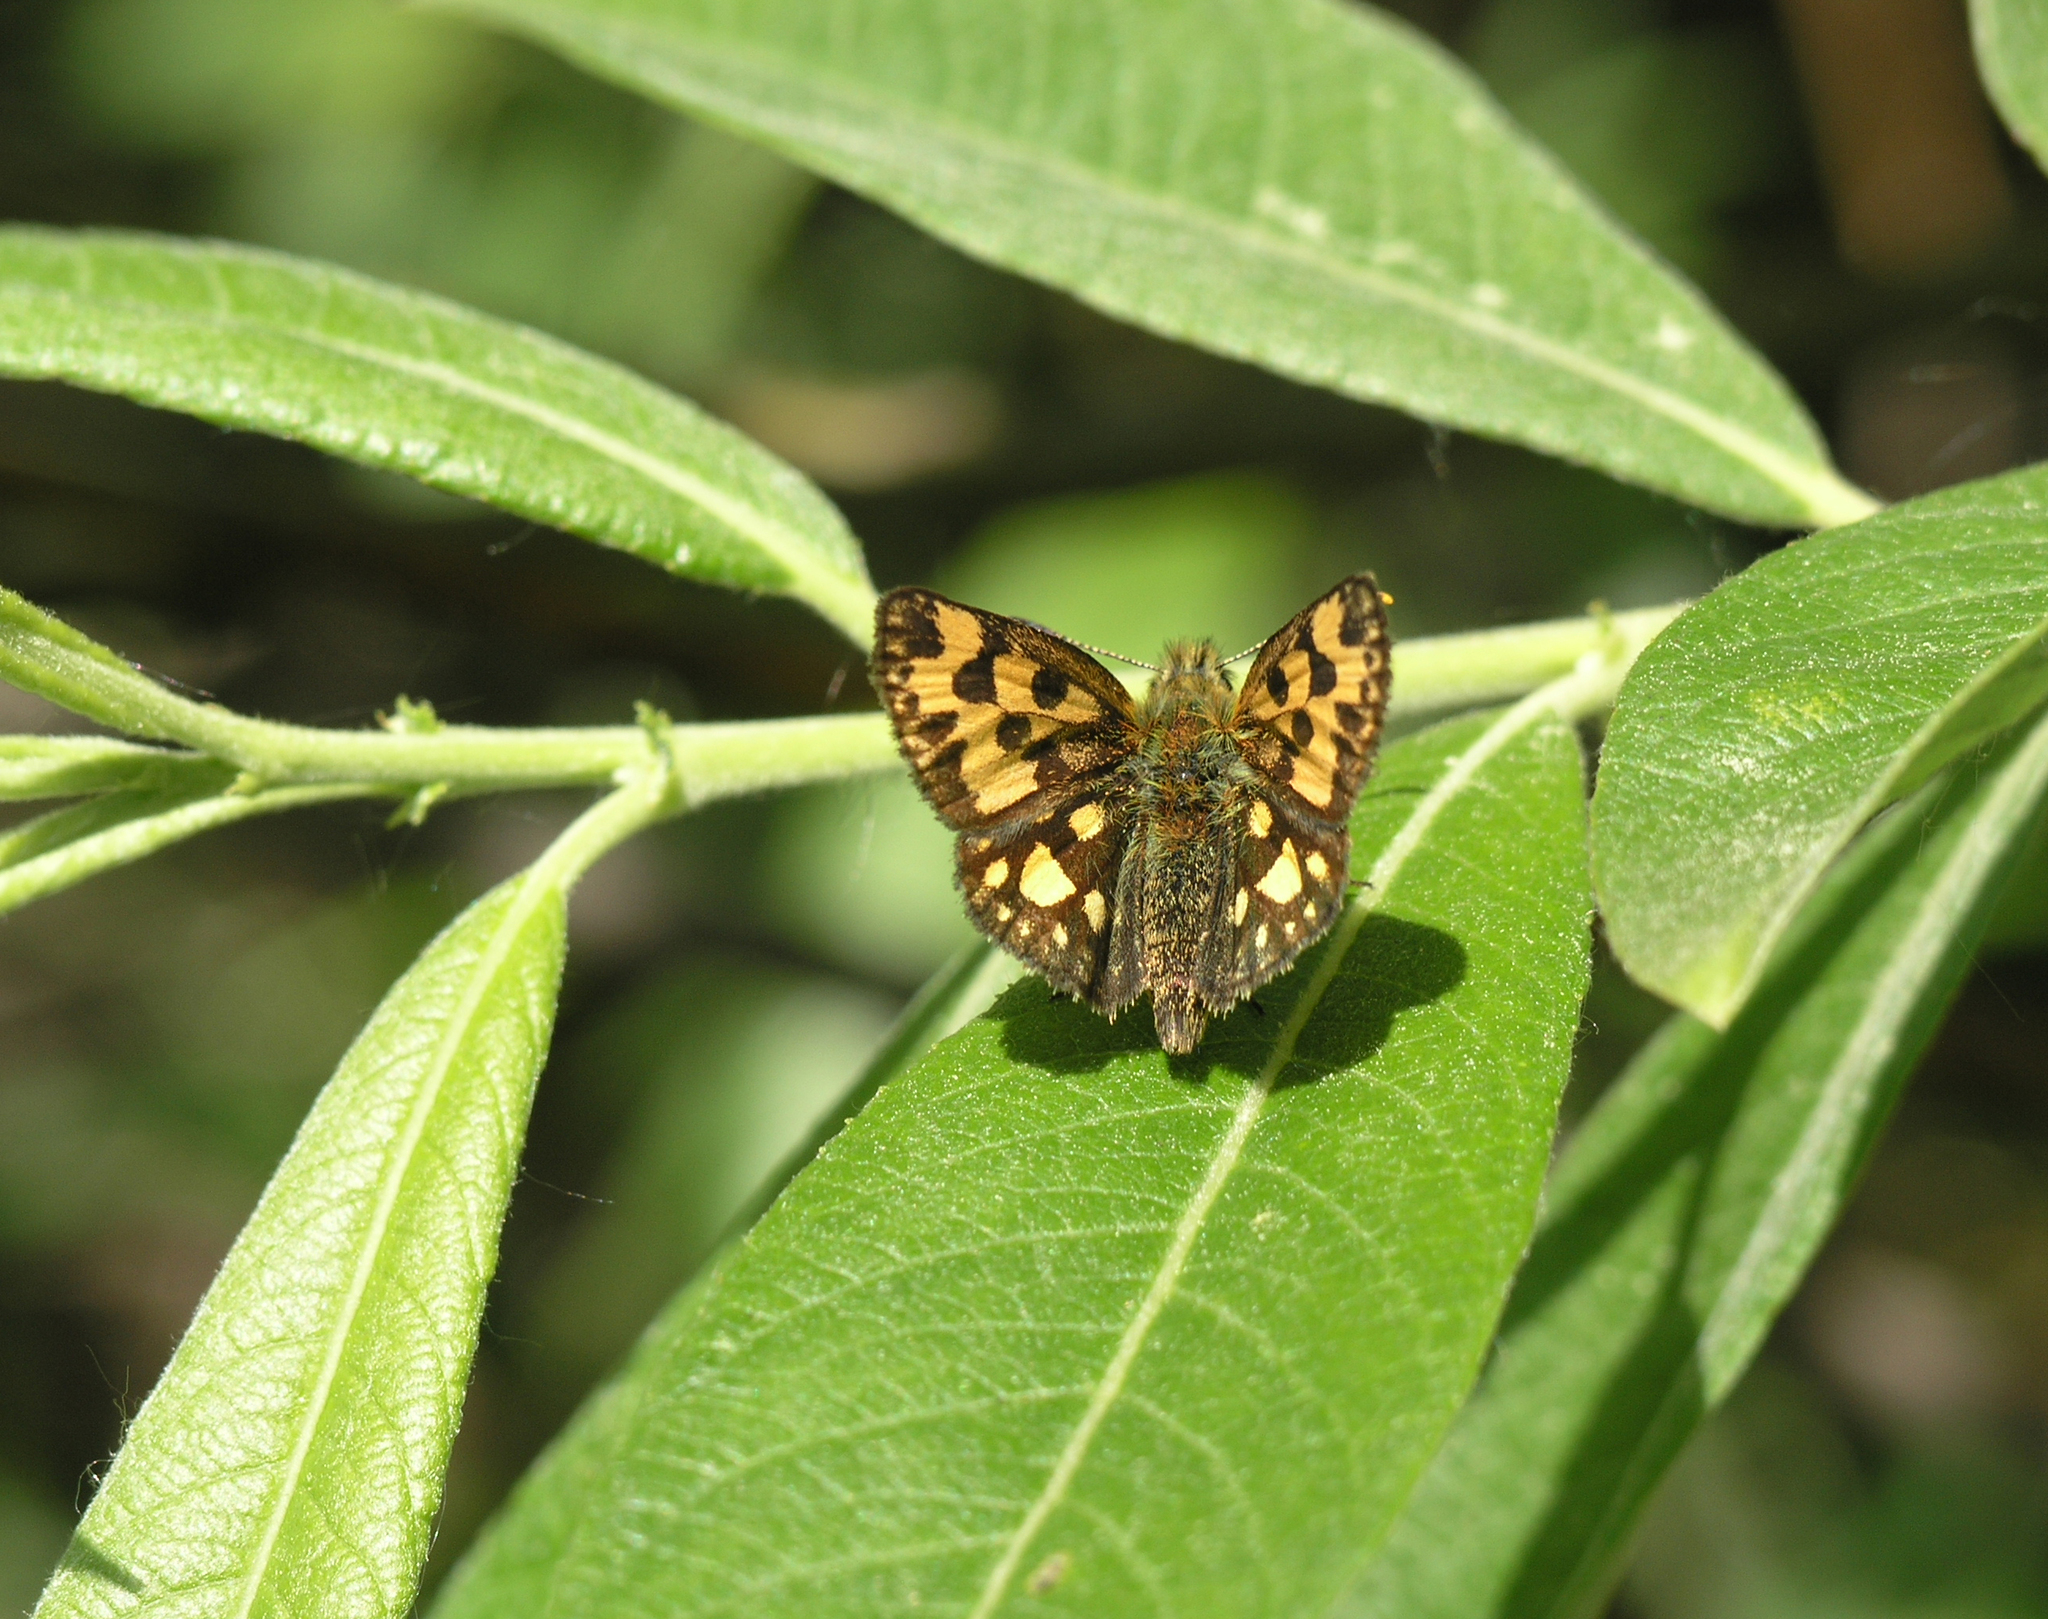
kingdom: Animalia
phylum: Arthropoda
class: Insecta
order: Lepidoptera
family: Hesperiidae
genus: Carterocephalus
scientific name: Carterocephalus silvicola
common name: Northern chequered skipper
